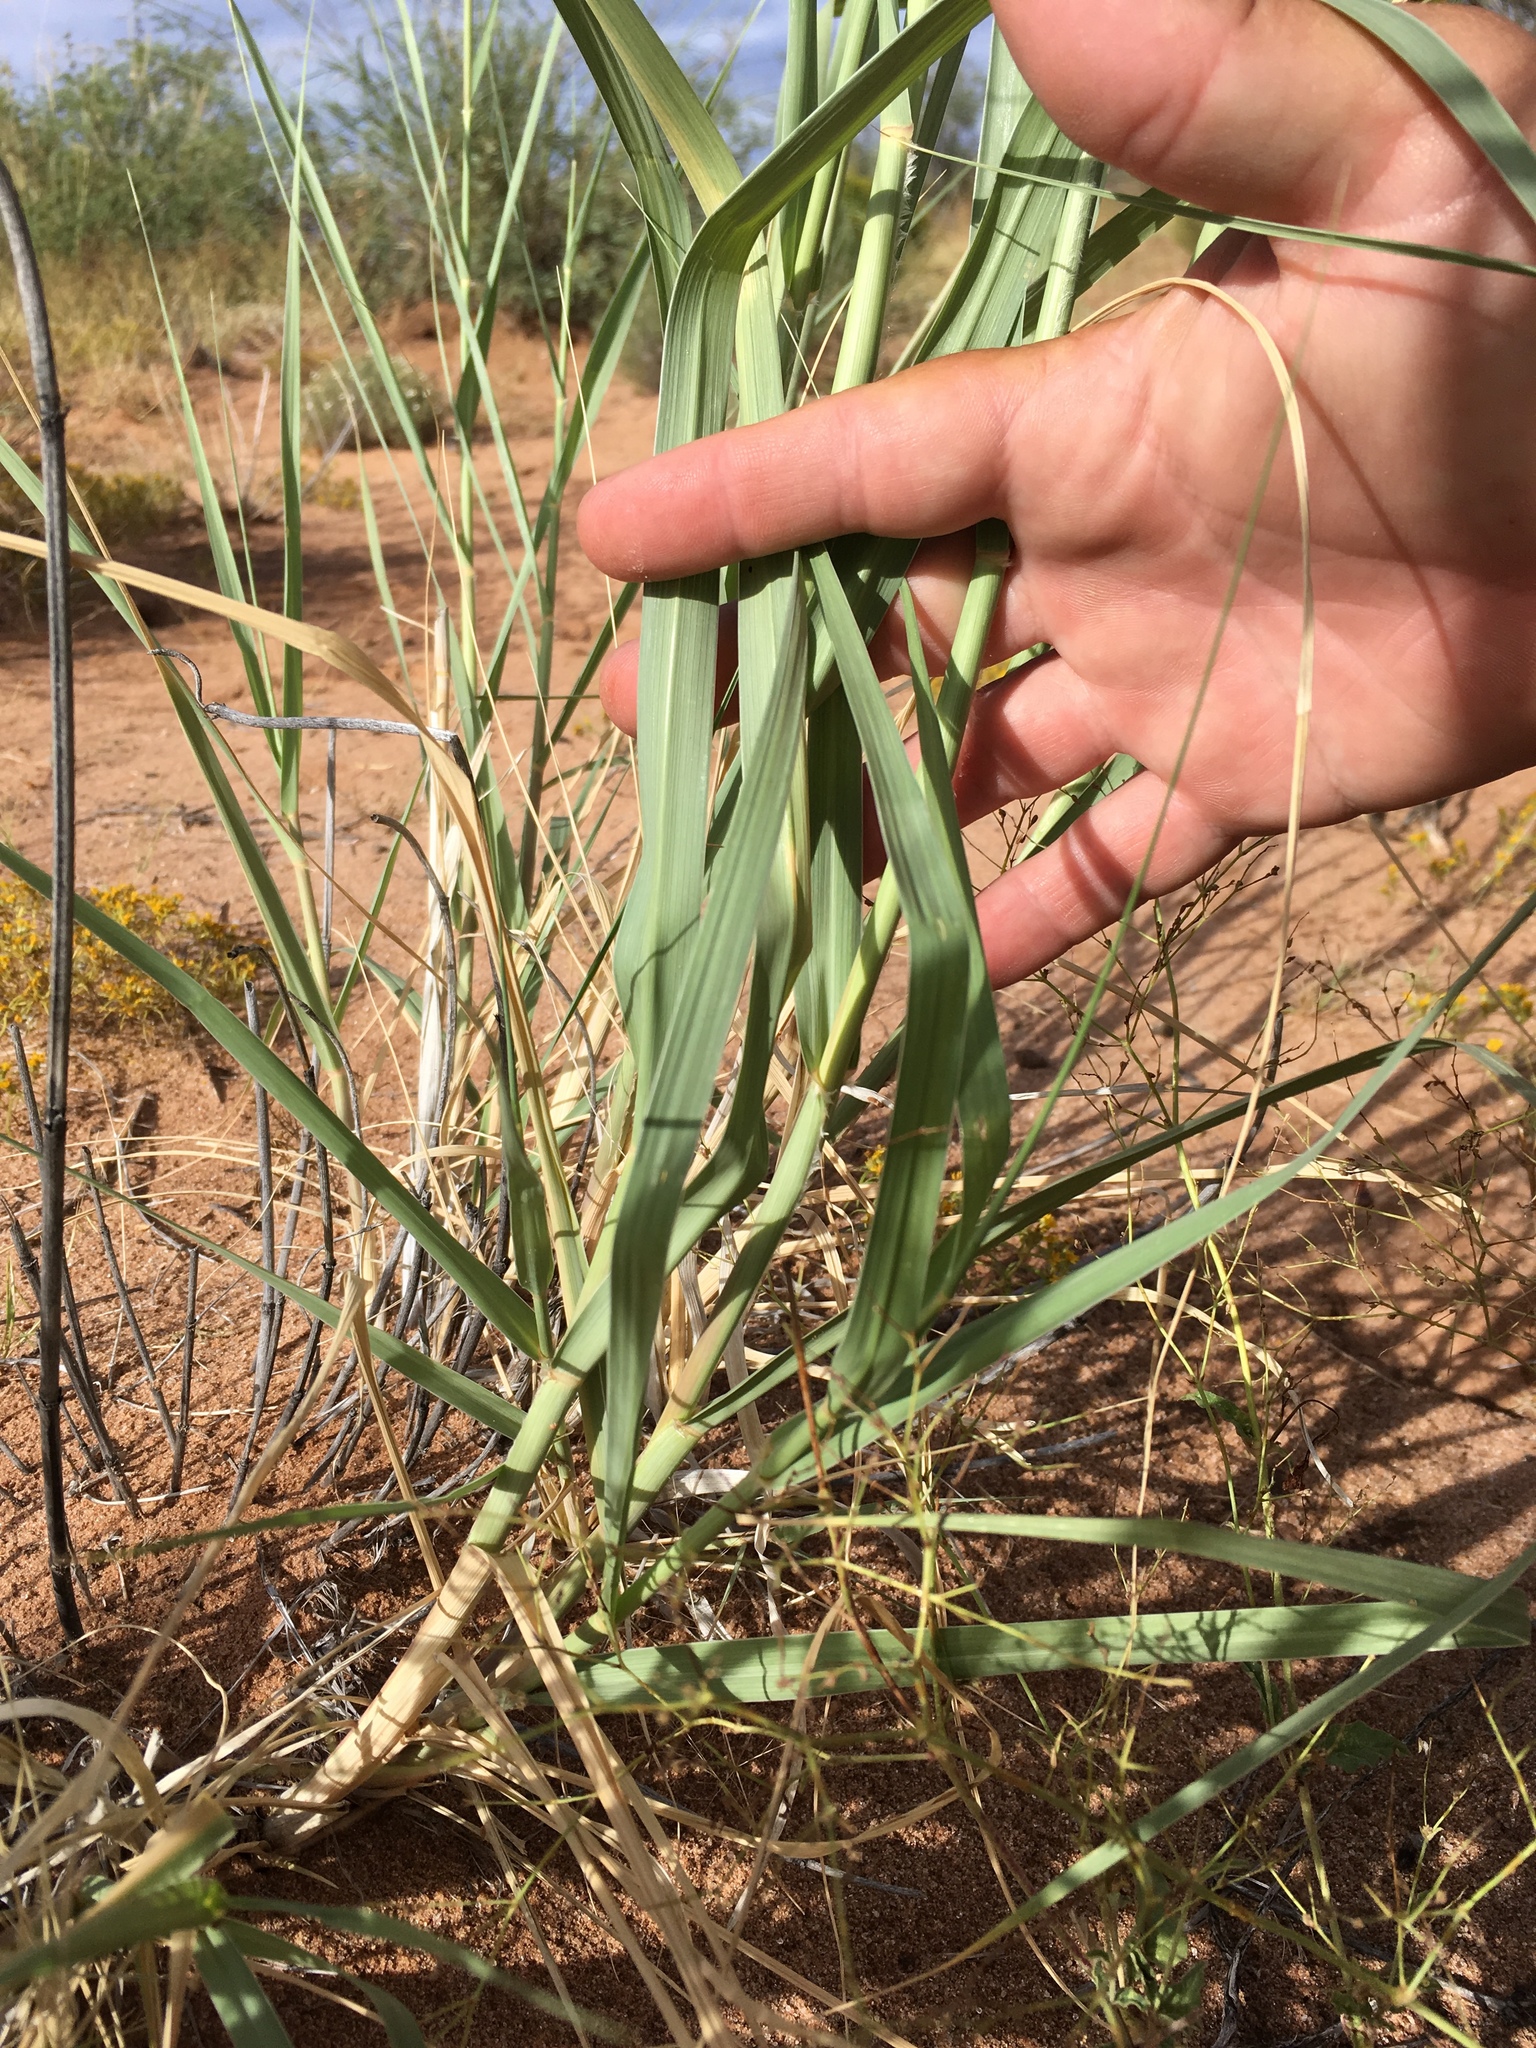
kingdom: Plantae
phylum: Tracheophyta
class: Liliopsida
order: Poales
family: Poaceae
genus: Sporobolus
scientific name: Sporobolus giganteus
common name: Giant dropseed
